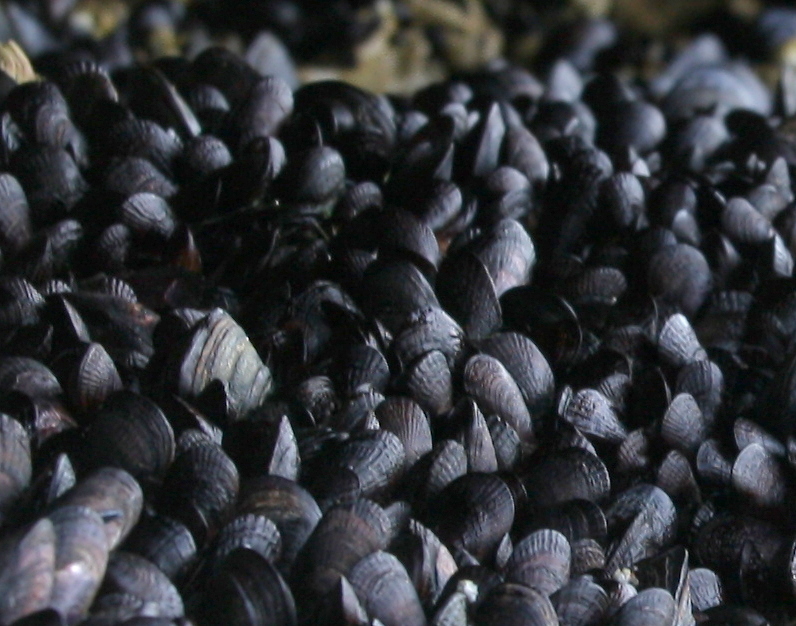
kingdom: Animalia
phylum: Mollusca
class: Bivalvia
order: Mytilida
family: Mytilidae
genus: Perumytilus
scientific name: Perumytilus purpuratus
